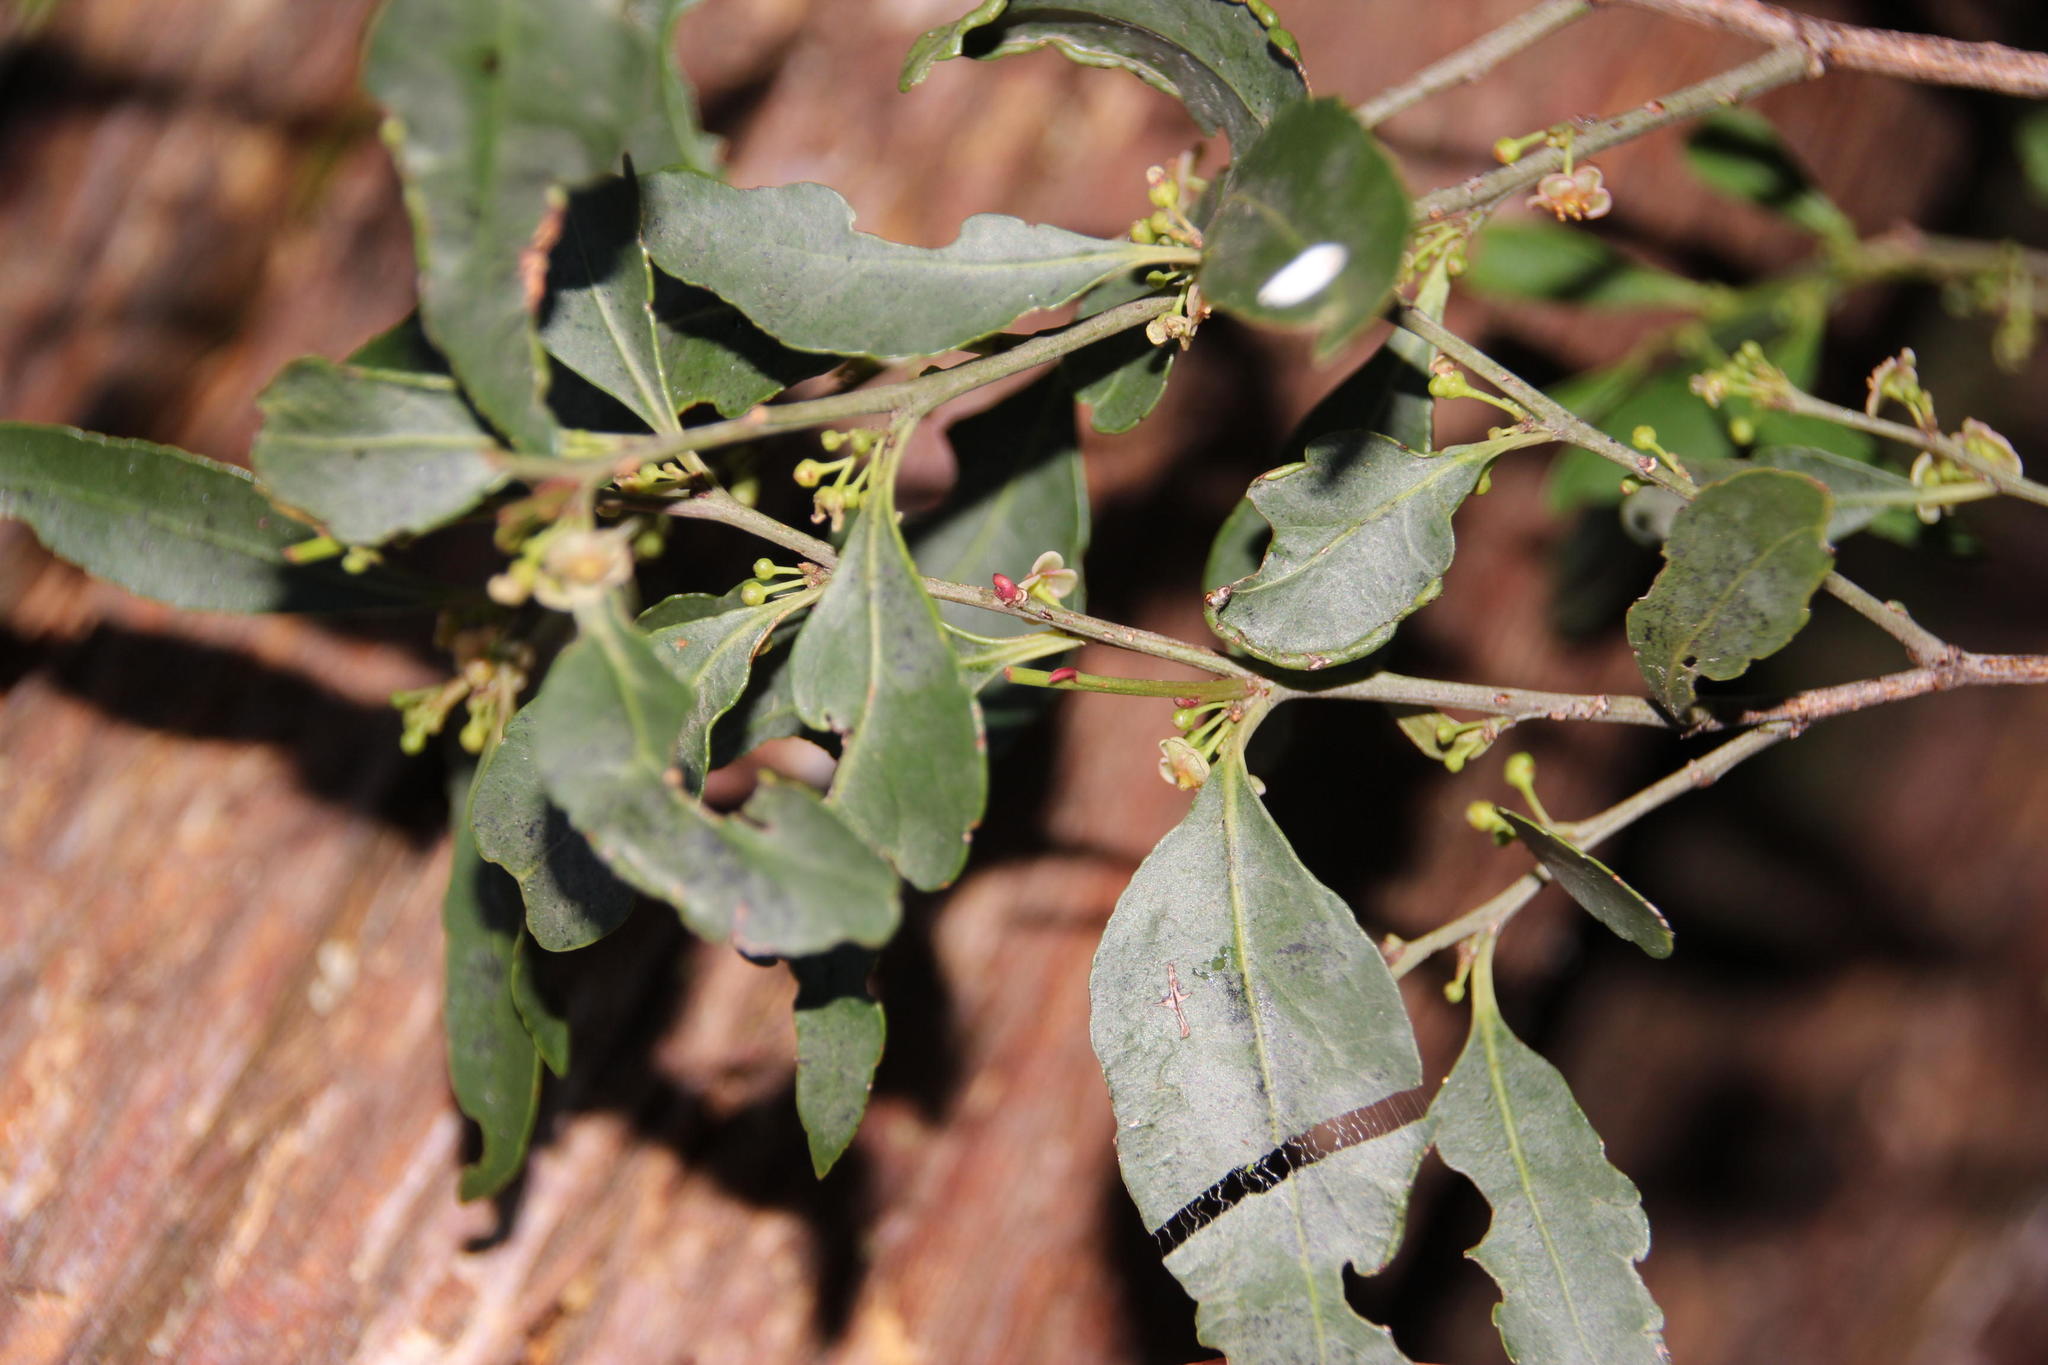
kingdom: Plantae
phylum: Tracheophyta
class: Magnoliopsida
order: Celastrales
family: Celastraceae
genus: Gymnosporia
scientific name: Gymnosporia acuminata
